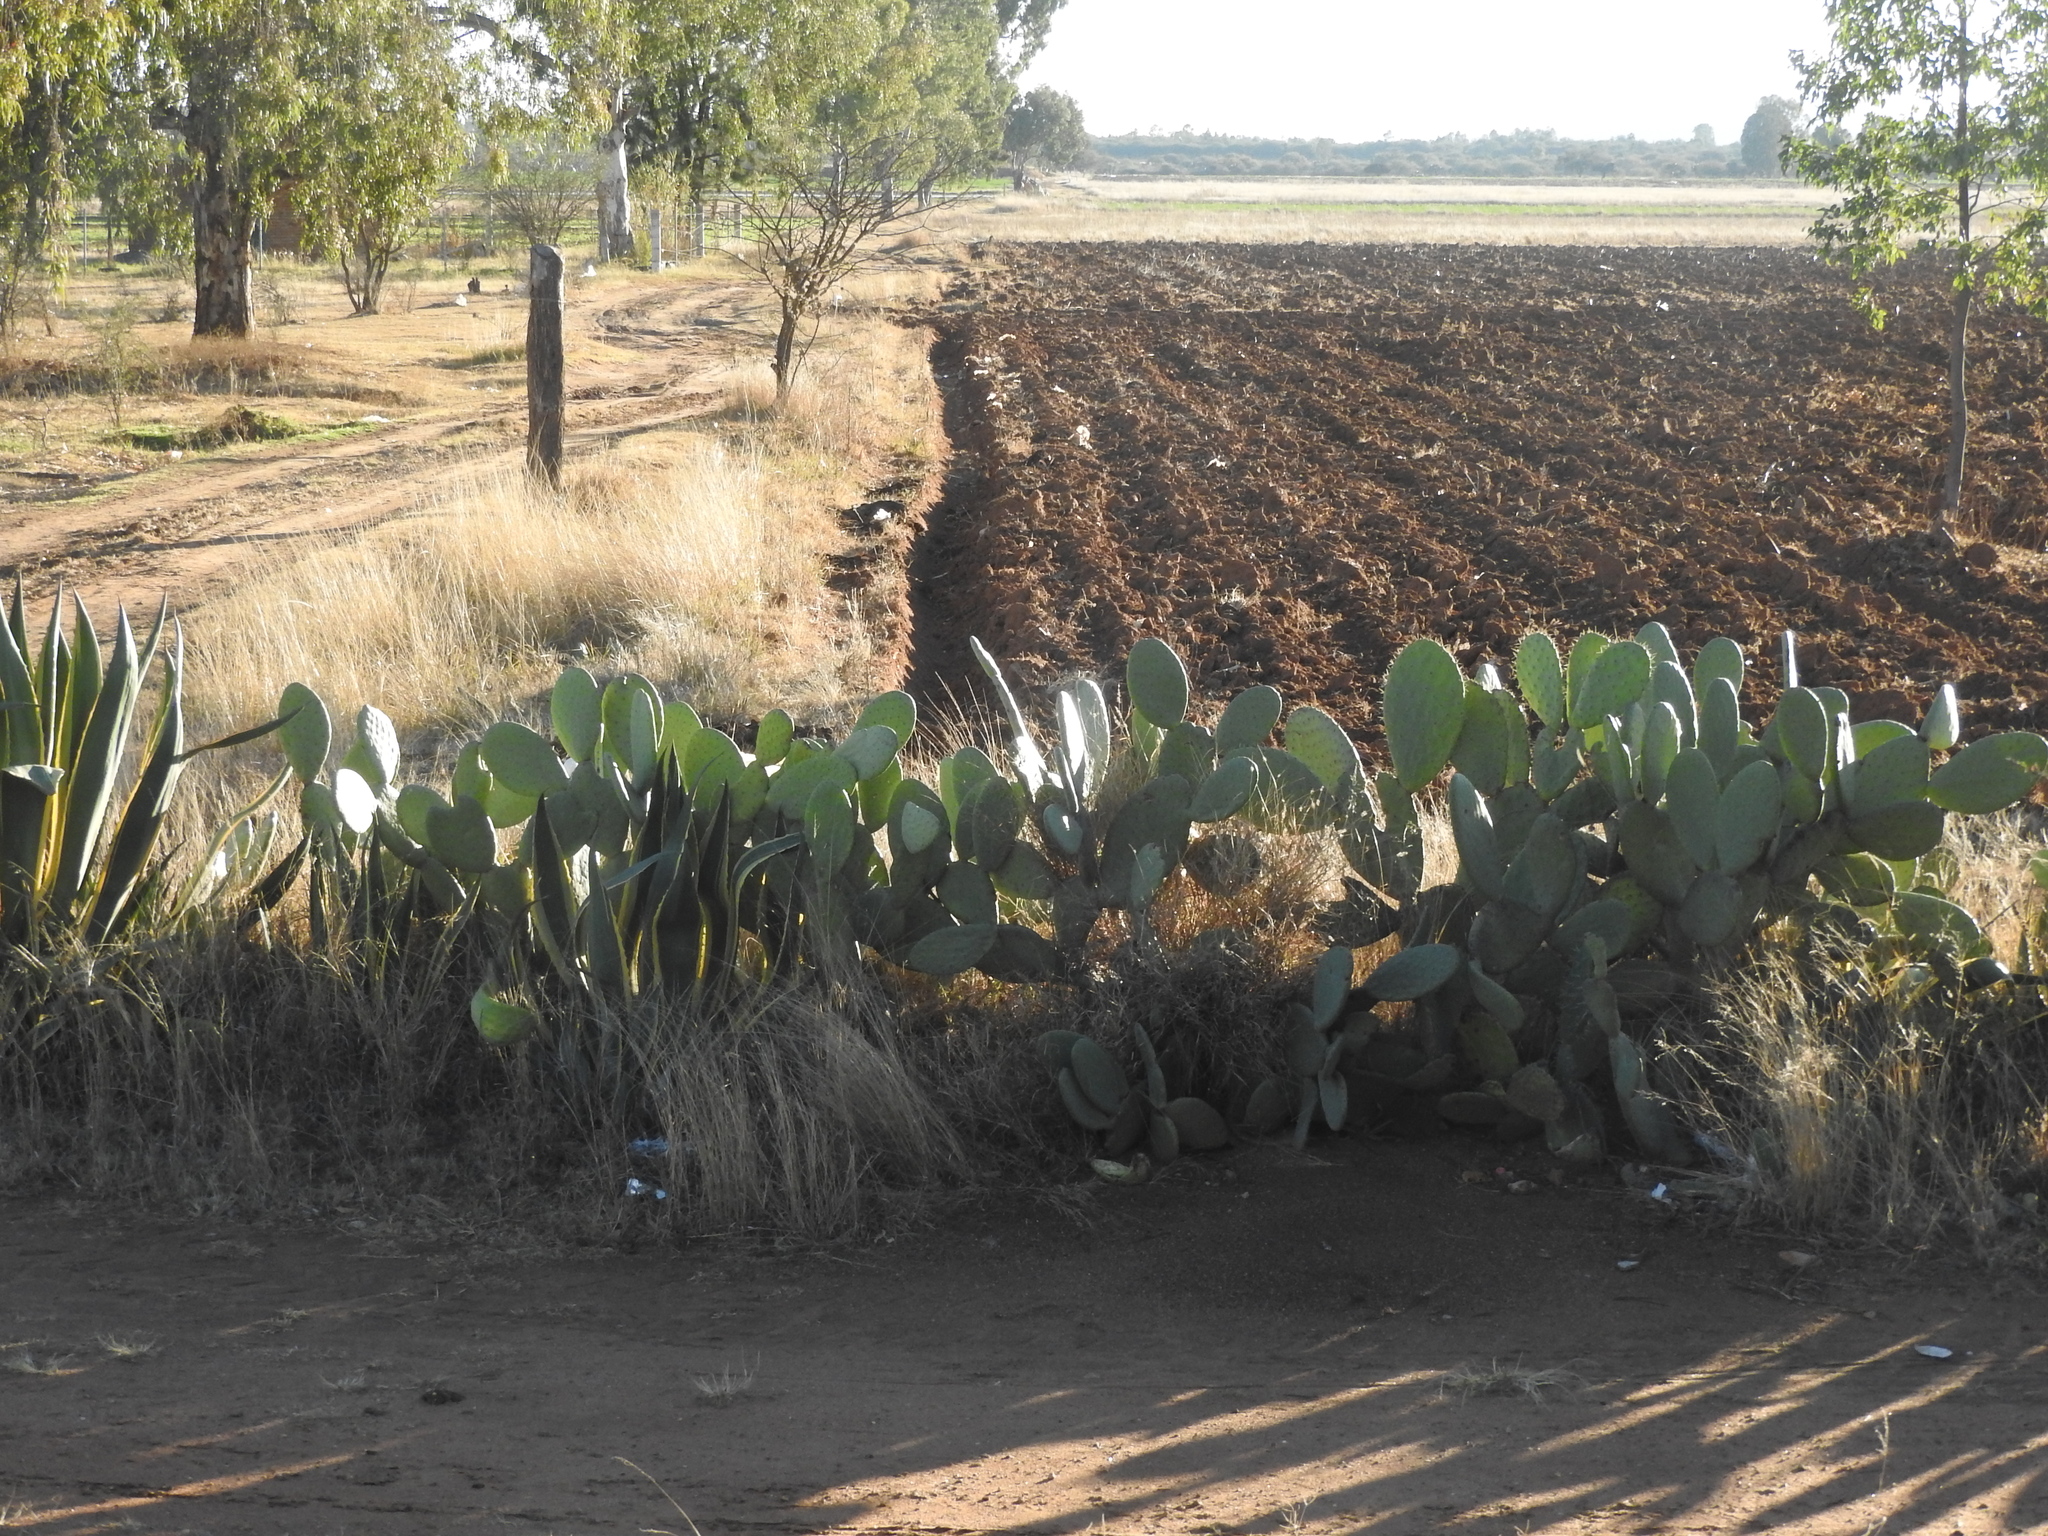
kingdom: Plantae
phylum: Tracheophyta
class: Magnoliopsida
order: Caryophyllales
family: Cactaceae
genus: Opuntia
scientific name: Opuntia joconostle
